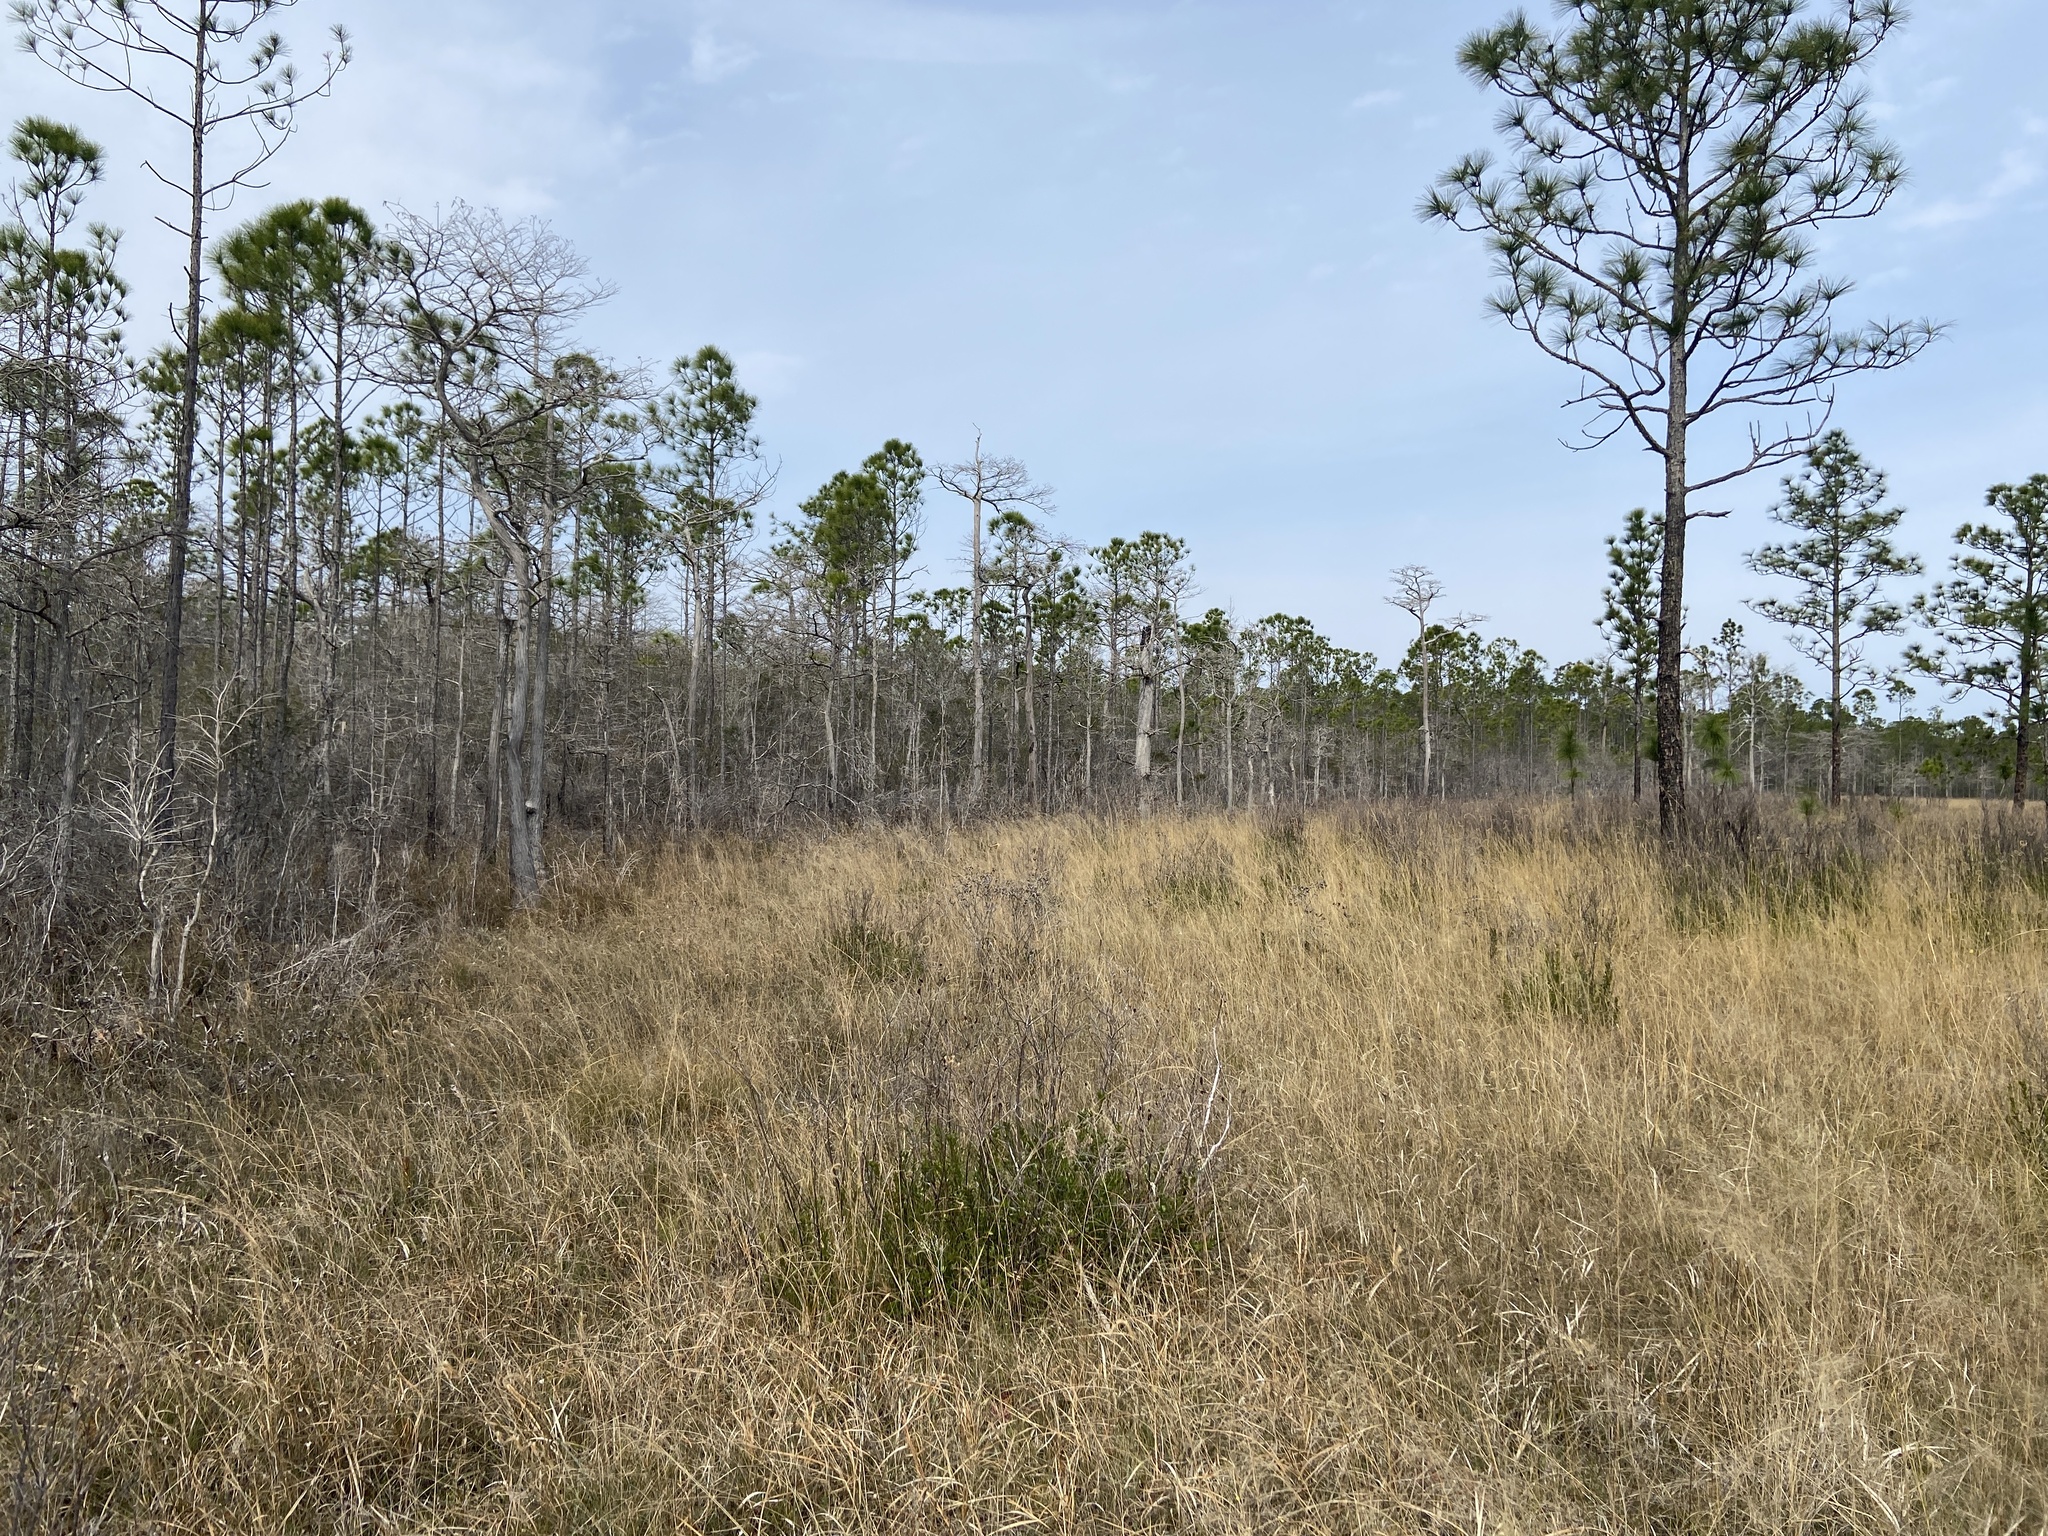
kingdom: Plantae
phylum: Tracheophyta
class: Pinopsida
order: Pinales
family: Cupressaceae
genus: Taxodium
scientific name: Taxodium distichum
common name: Bald cypress
